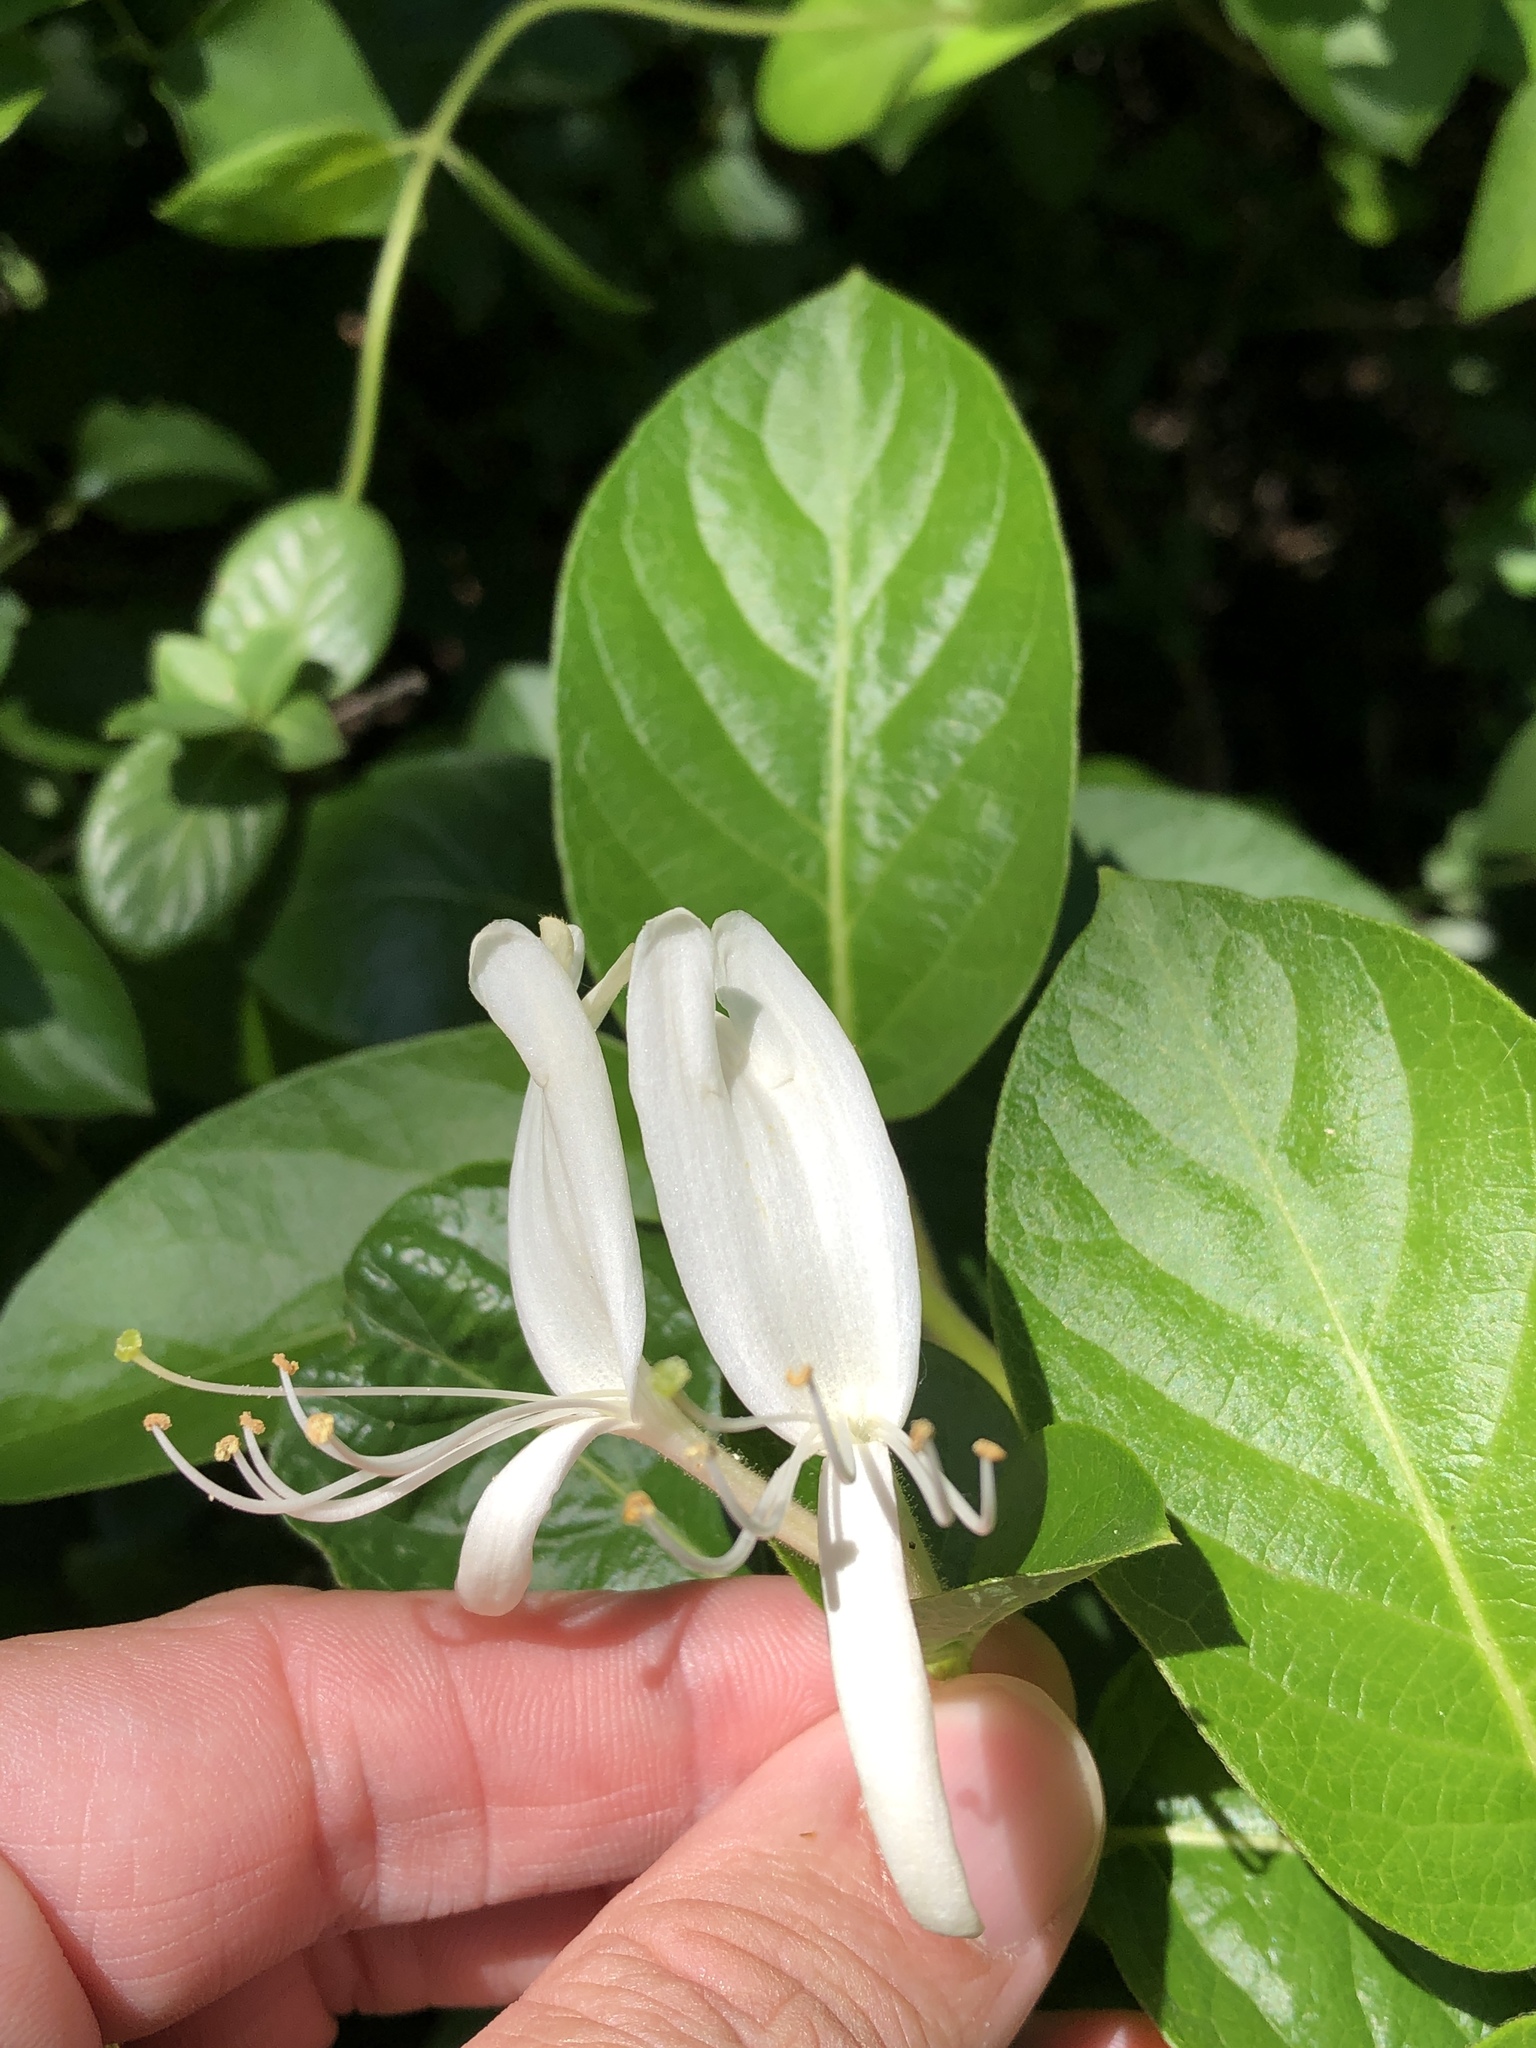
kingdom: Plantae
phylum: Tracheophyta
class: Magnoliopsida
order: Dipsacales
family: Caprifoliaceae
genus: Lonicera
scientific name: Lonicera japonica
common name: Japanese honeysuckle
